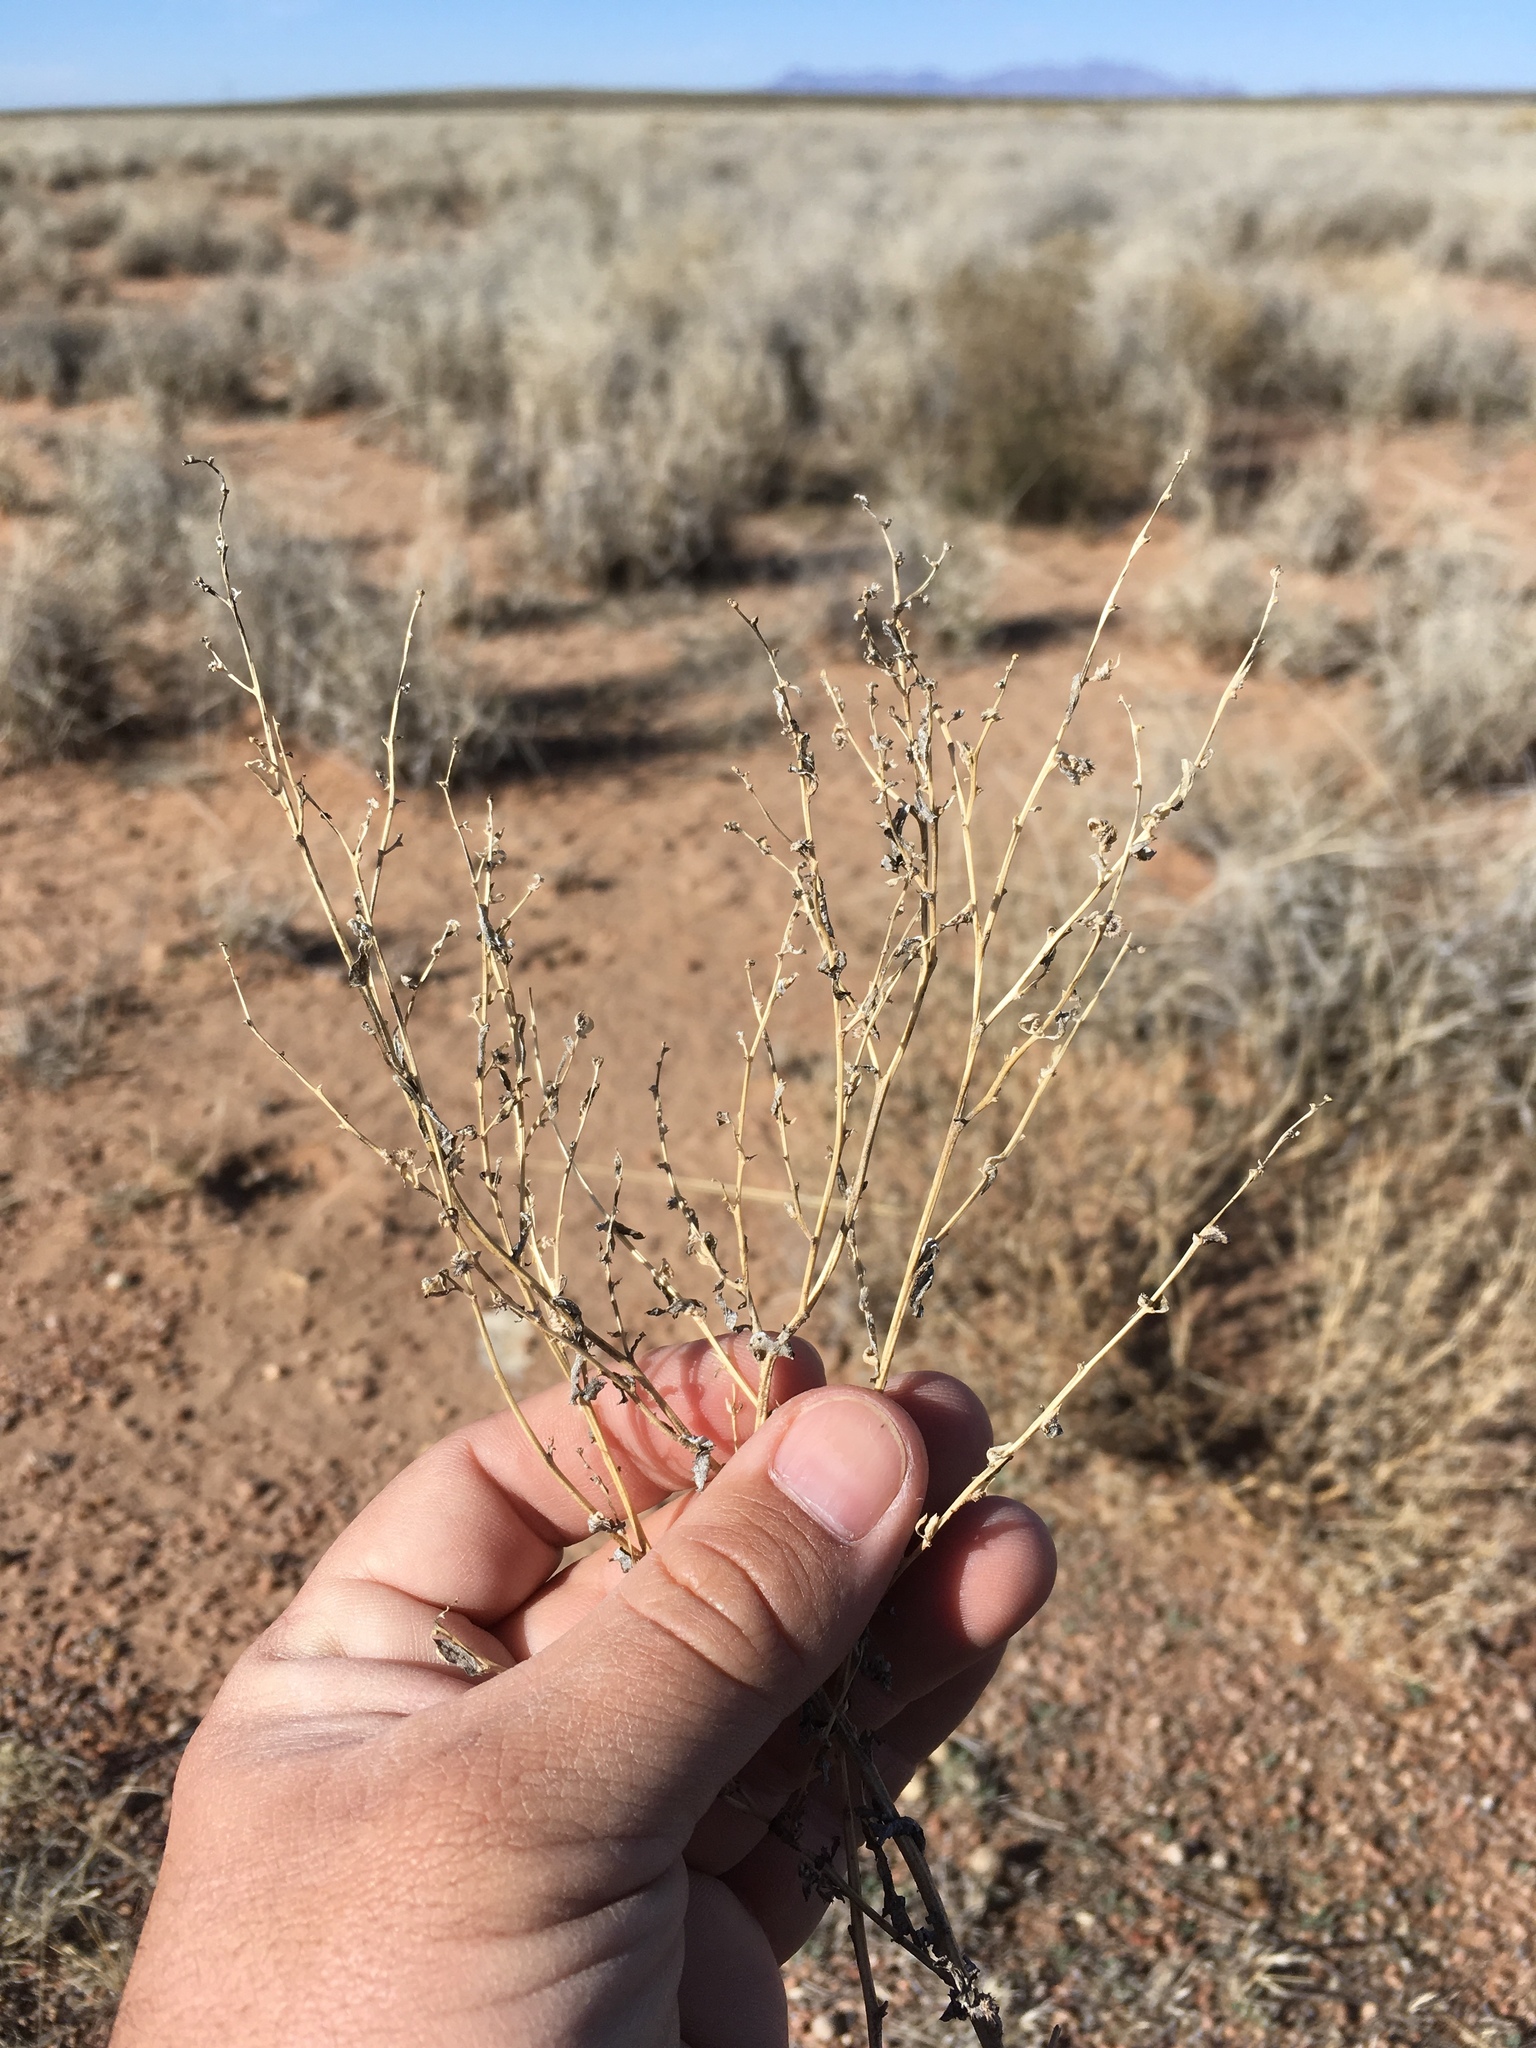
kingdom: Plantae
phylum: Tracheophyta
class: Magnoliopsida
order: Caryophyllales
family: Amaranthaceae
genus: Atriplex
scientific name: Atriplex elegans
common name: Wheelscale orach
